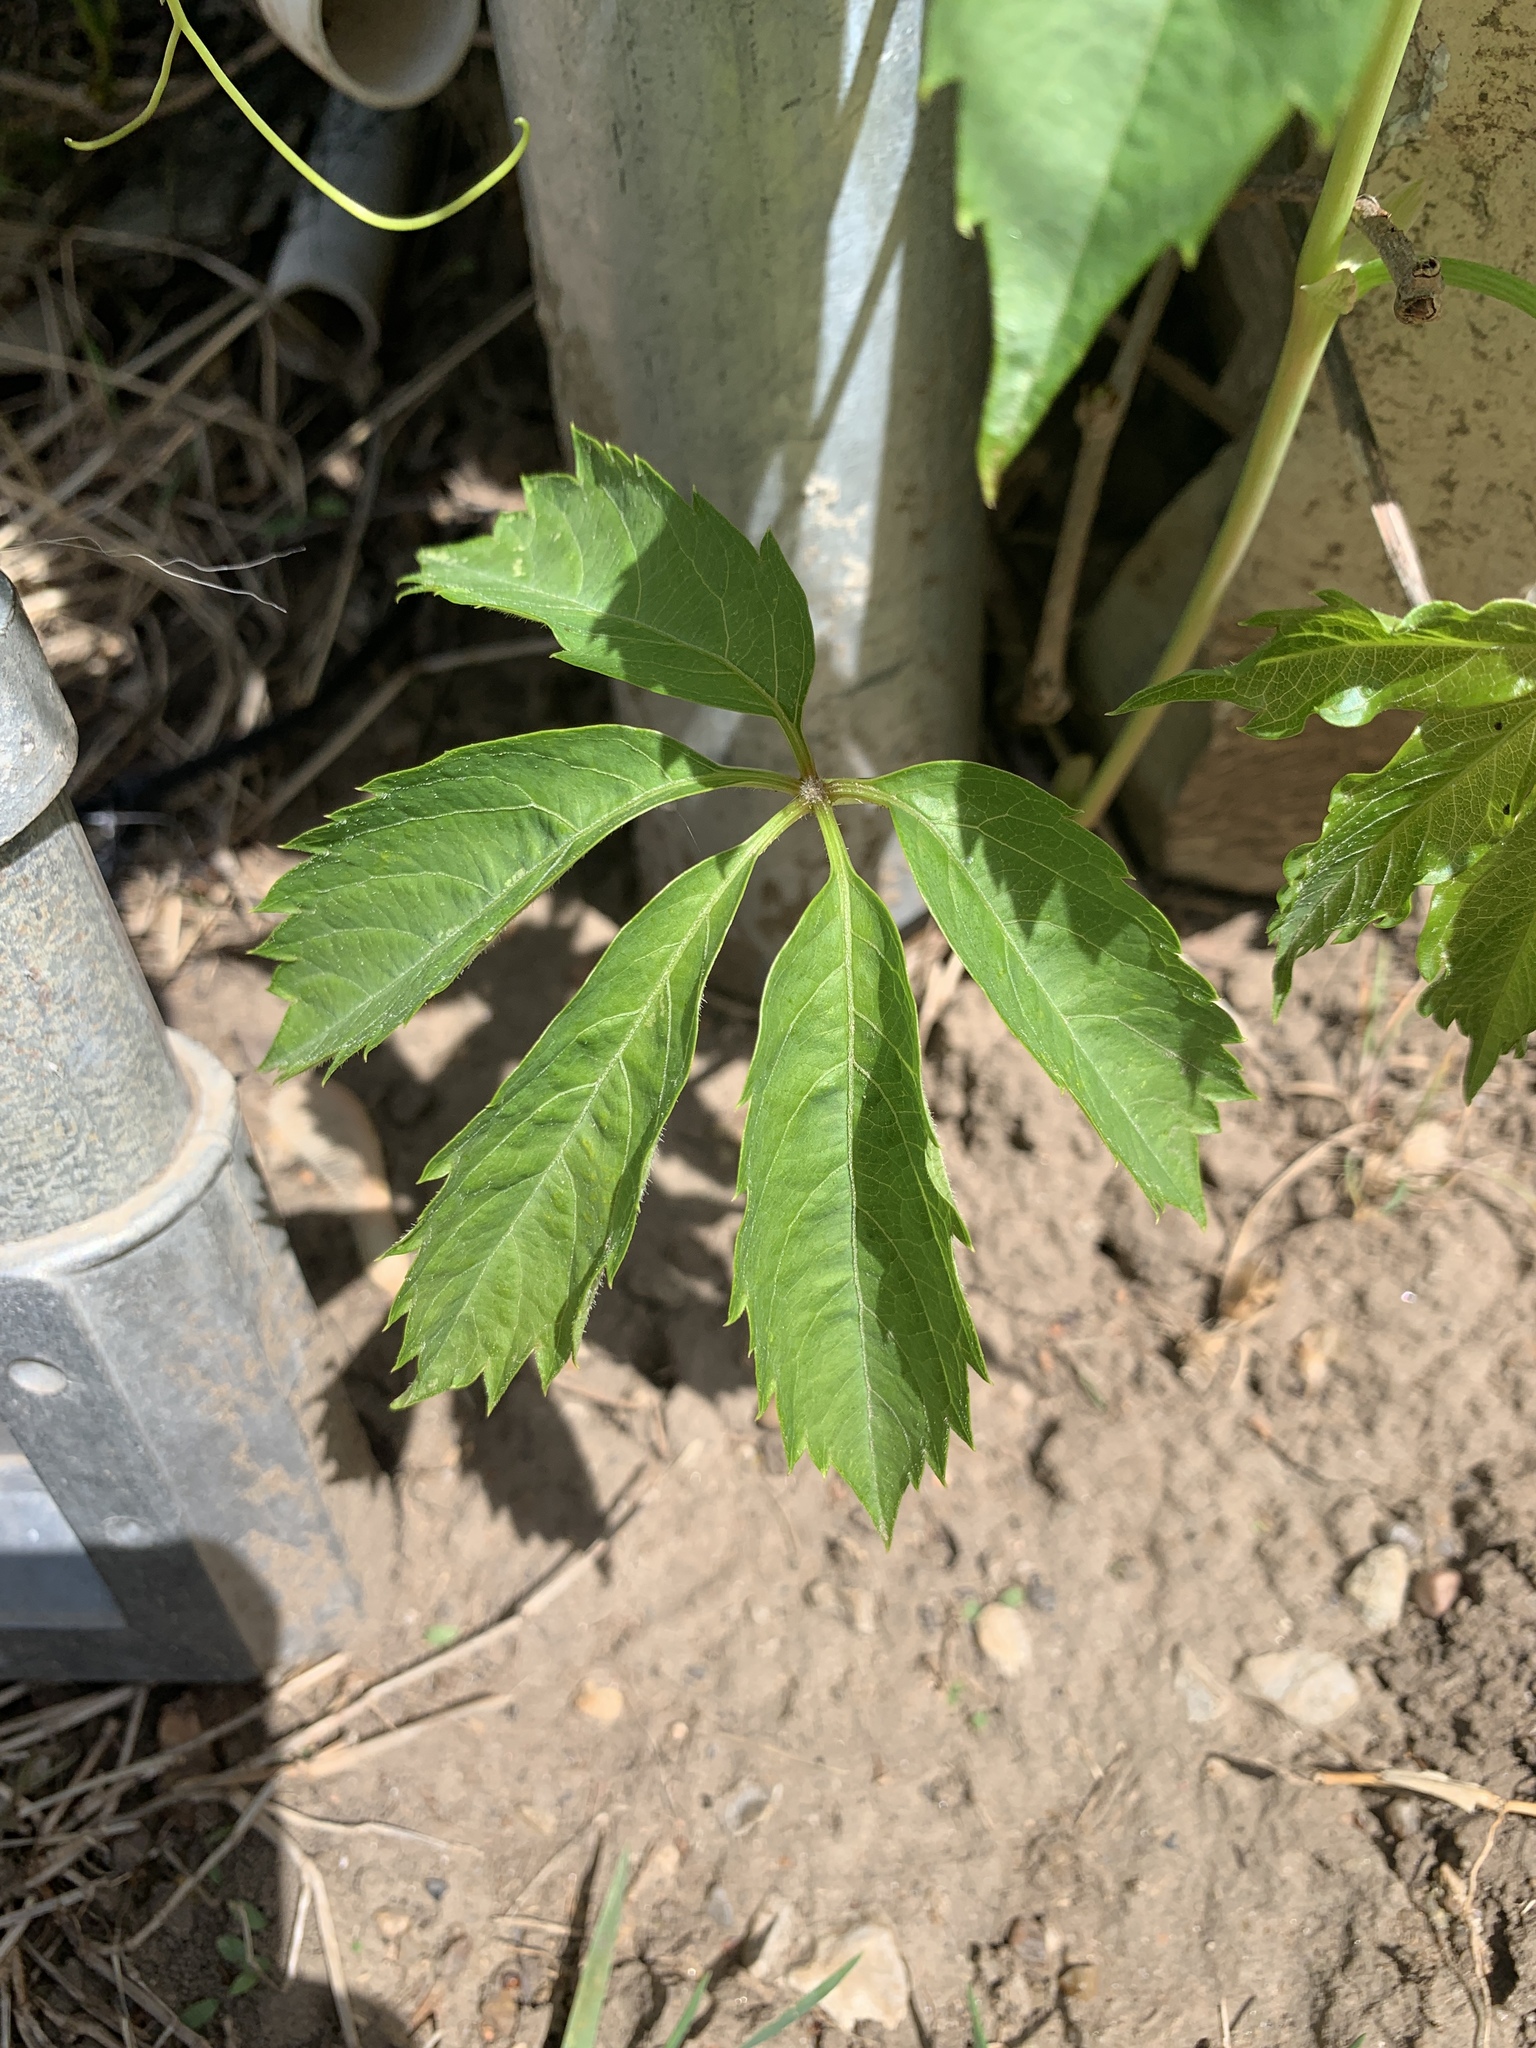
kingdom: Plantae
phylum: Tracheophyta
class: Magnoliopsida
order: Vitales
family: Vitaceae
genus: Parthenocissus
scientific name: Parthenocissus quinquefolia
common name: Virginia-creeper
